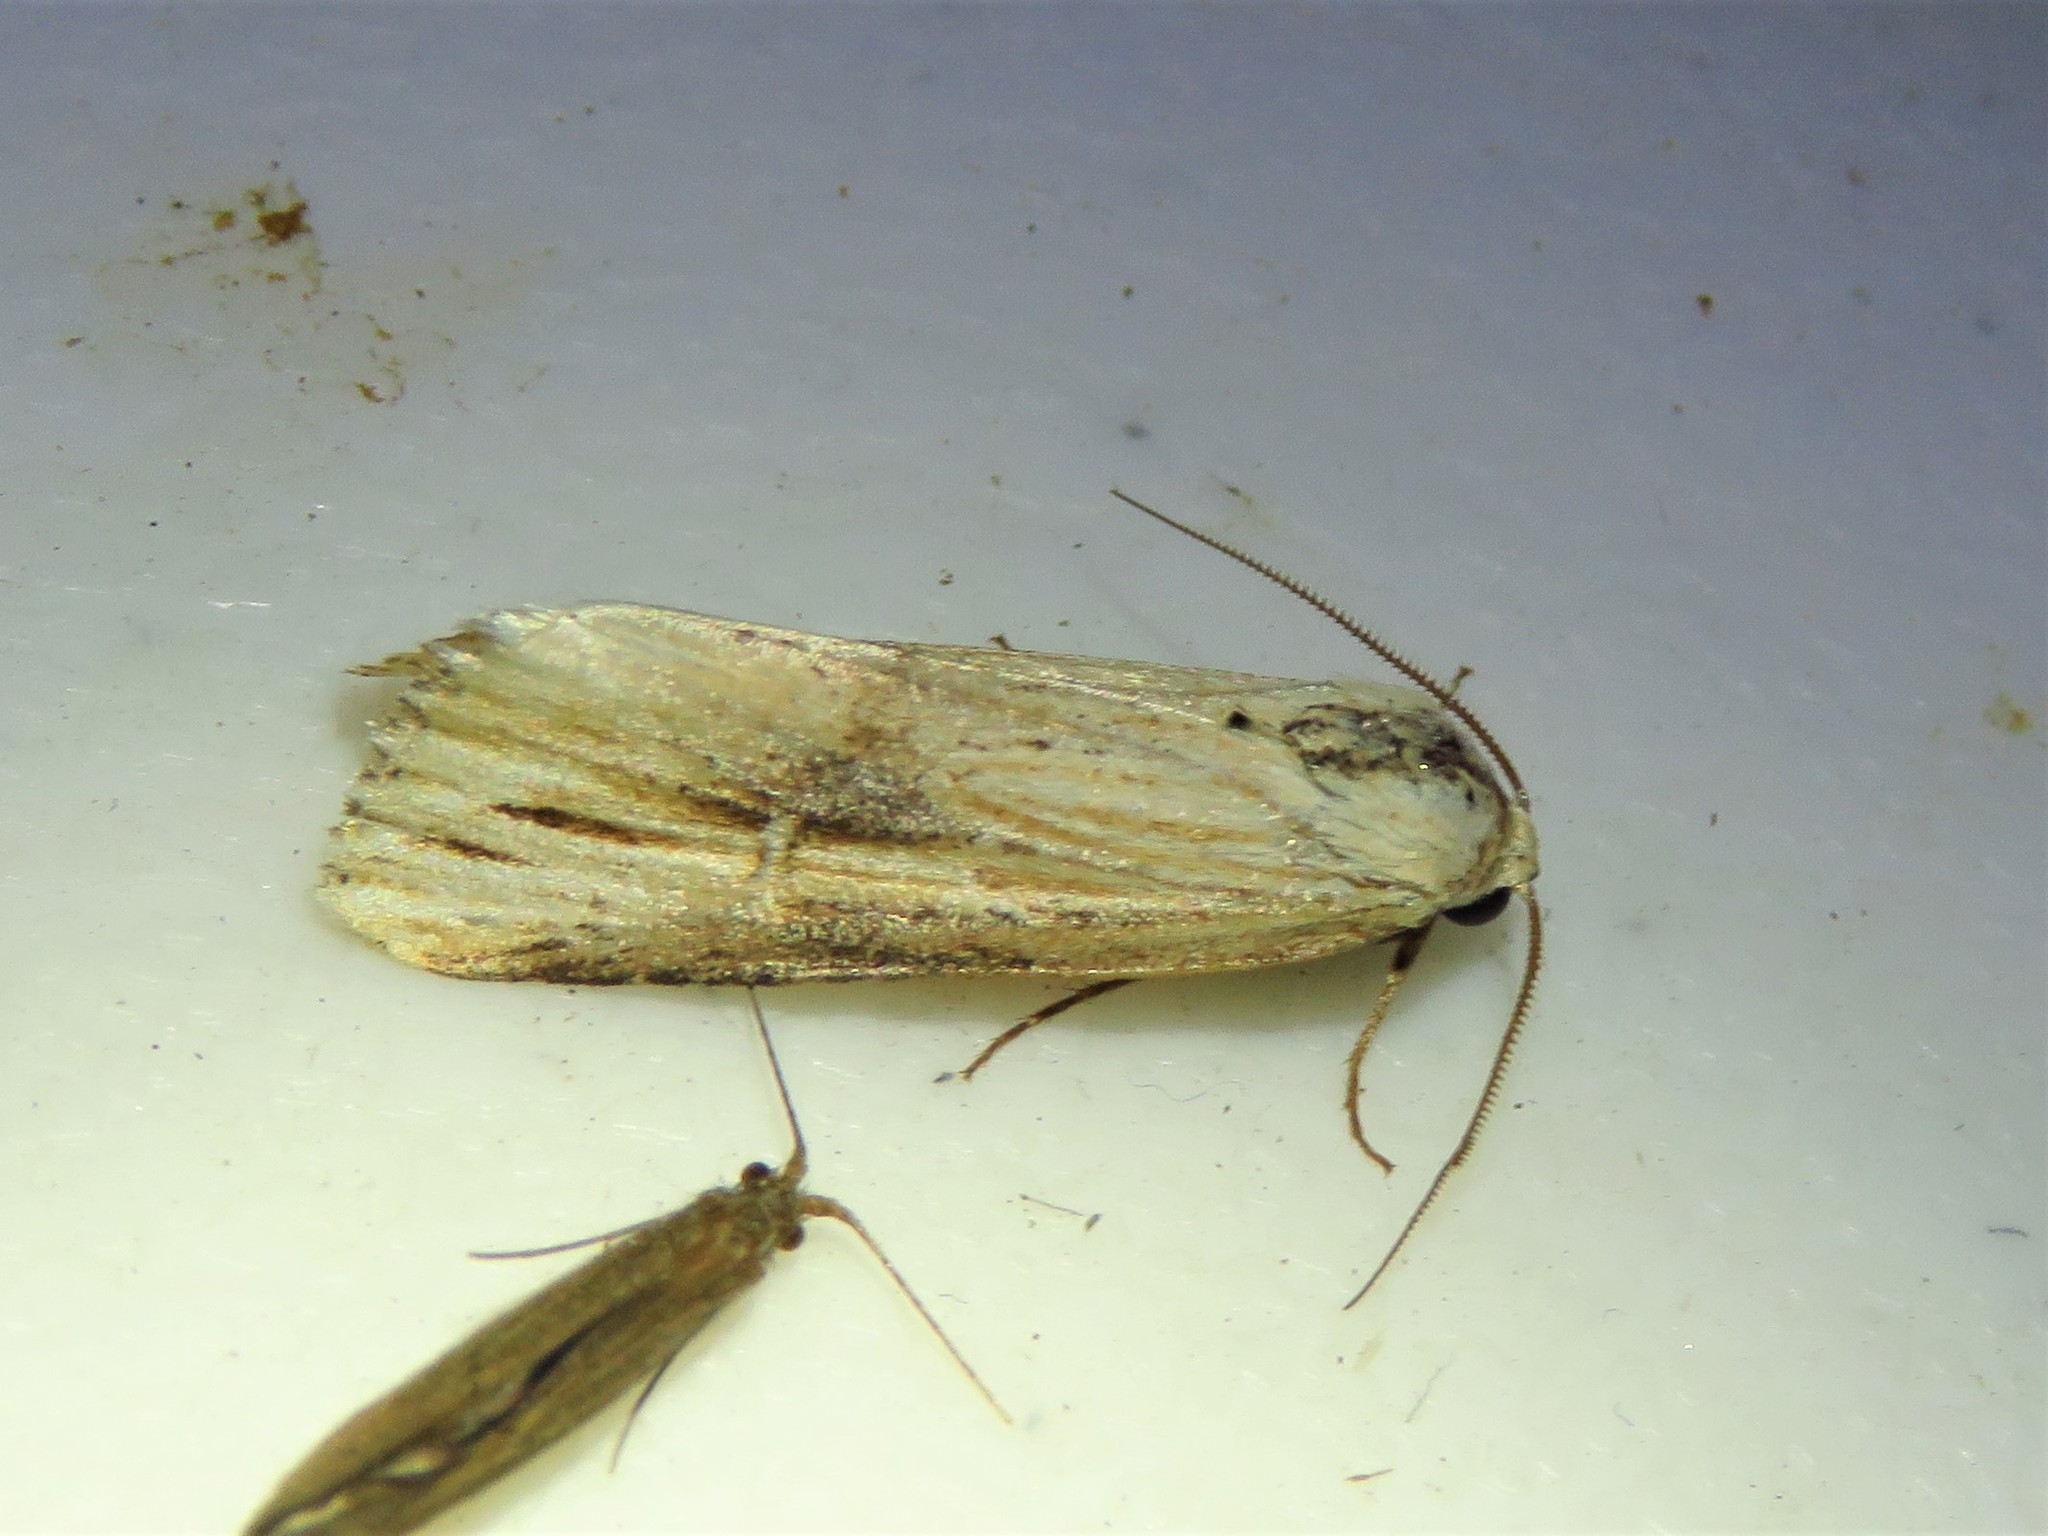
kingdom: Animalia
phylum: Arthropoda
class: Insecta
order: Lepidoptera
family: Noctuidae
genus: Crambodes
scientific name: Crambodes talidiformis
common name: Verbena moth
